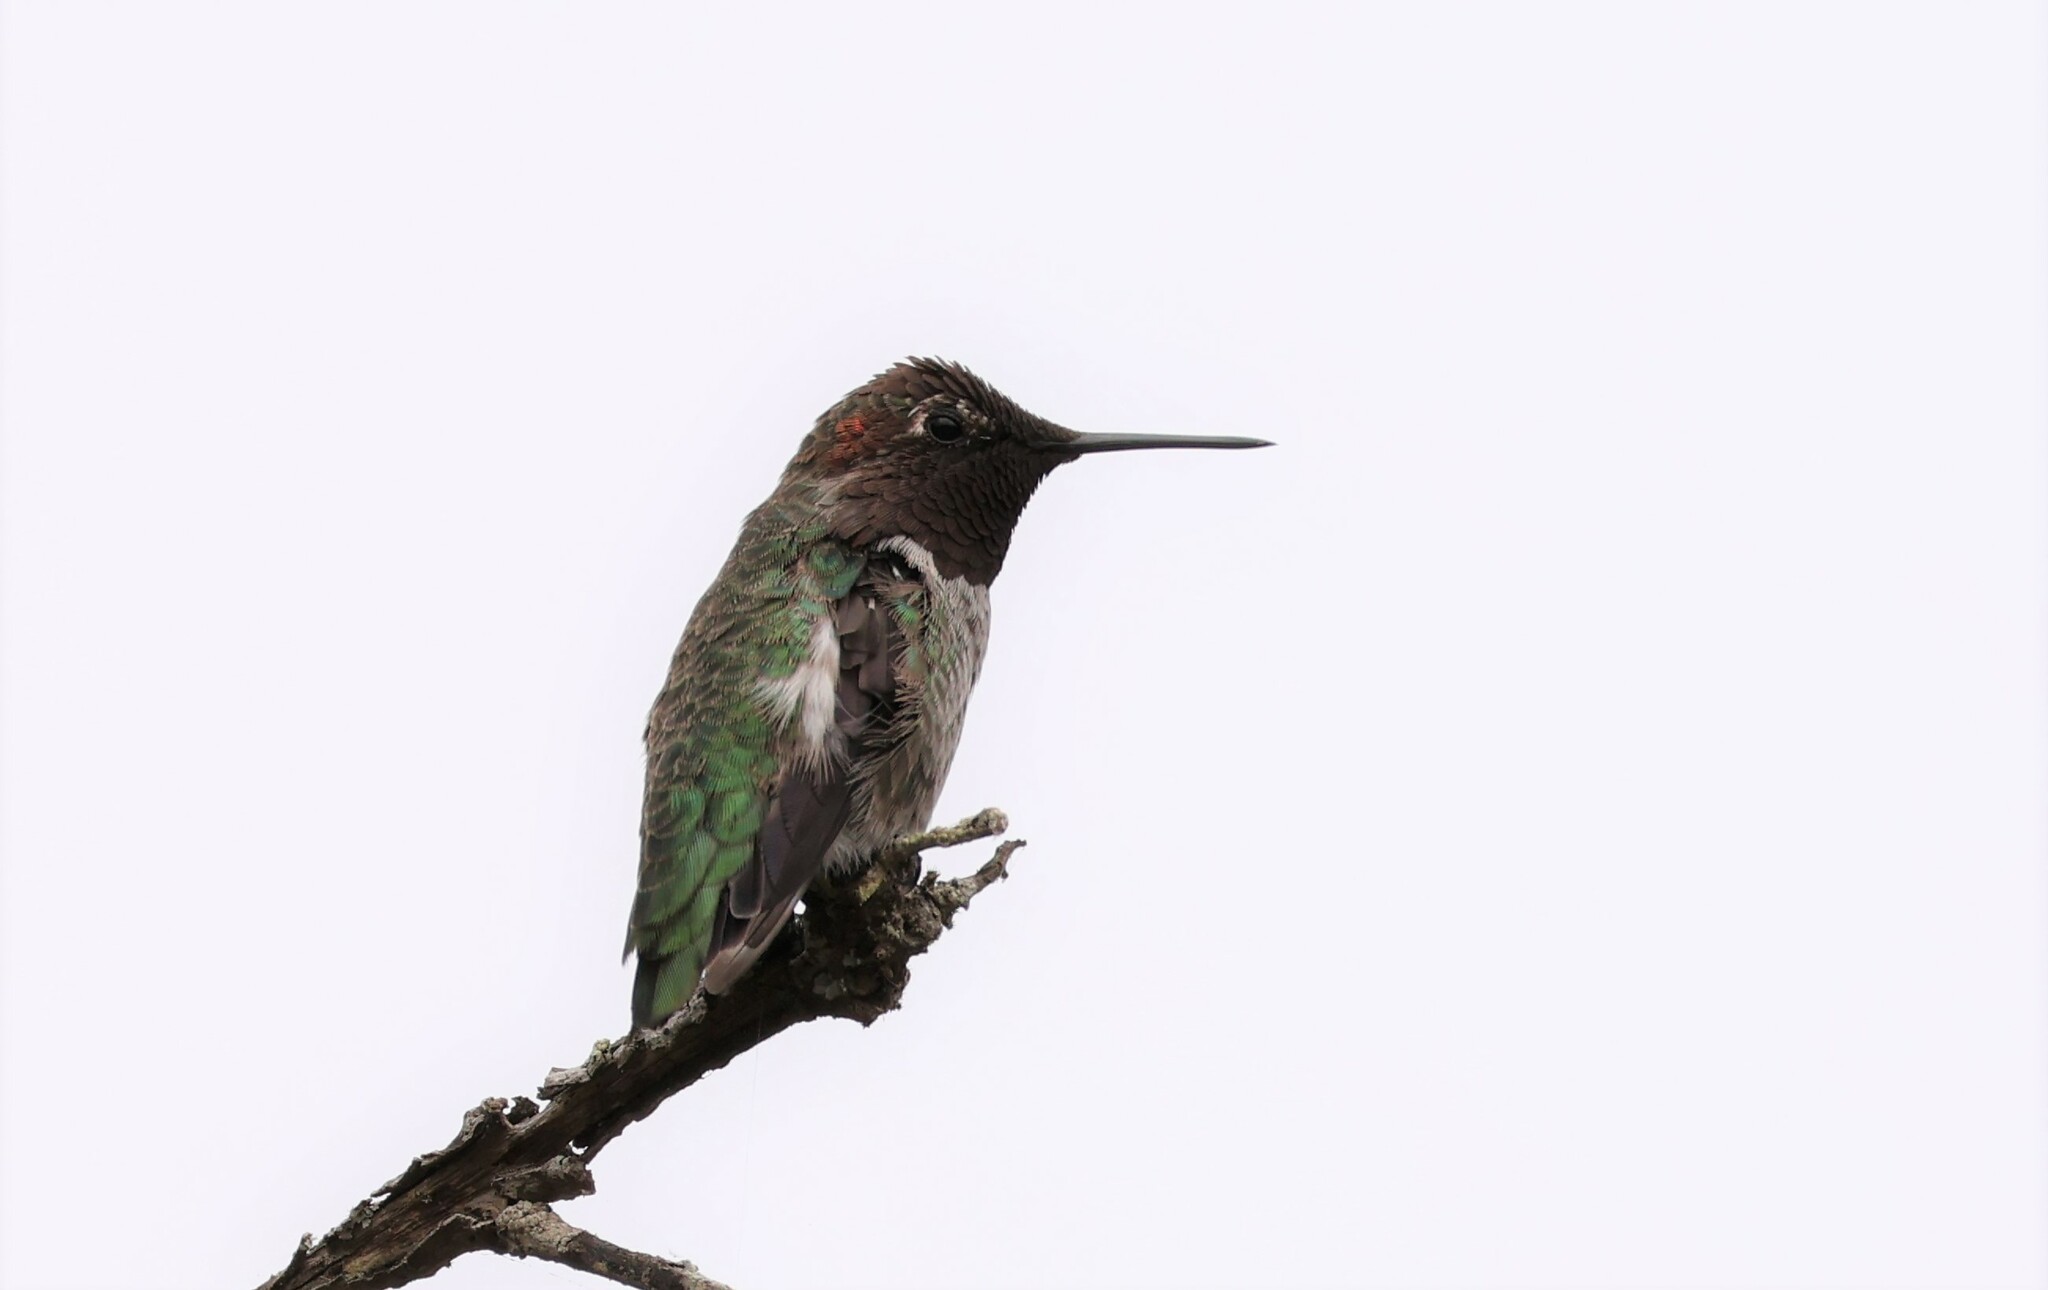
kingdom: Animalia
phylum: Chordata
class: Aves
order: Apodiformes
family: Trochilidae
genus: Calypte
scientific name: Calypte anna
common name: Anna's hummingbird
